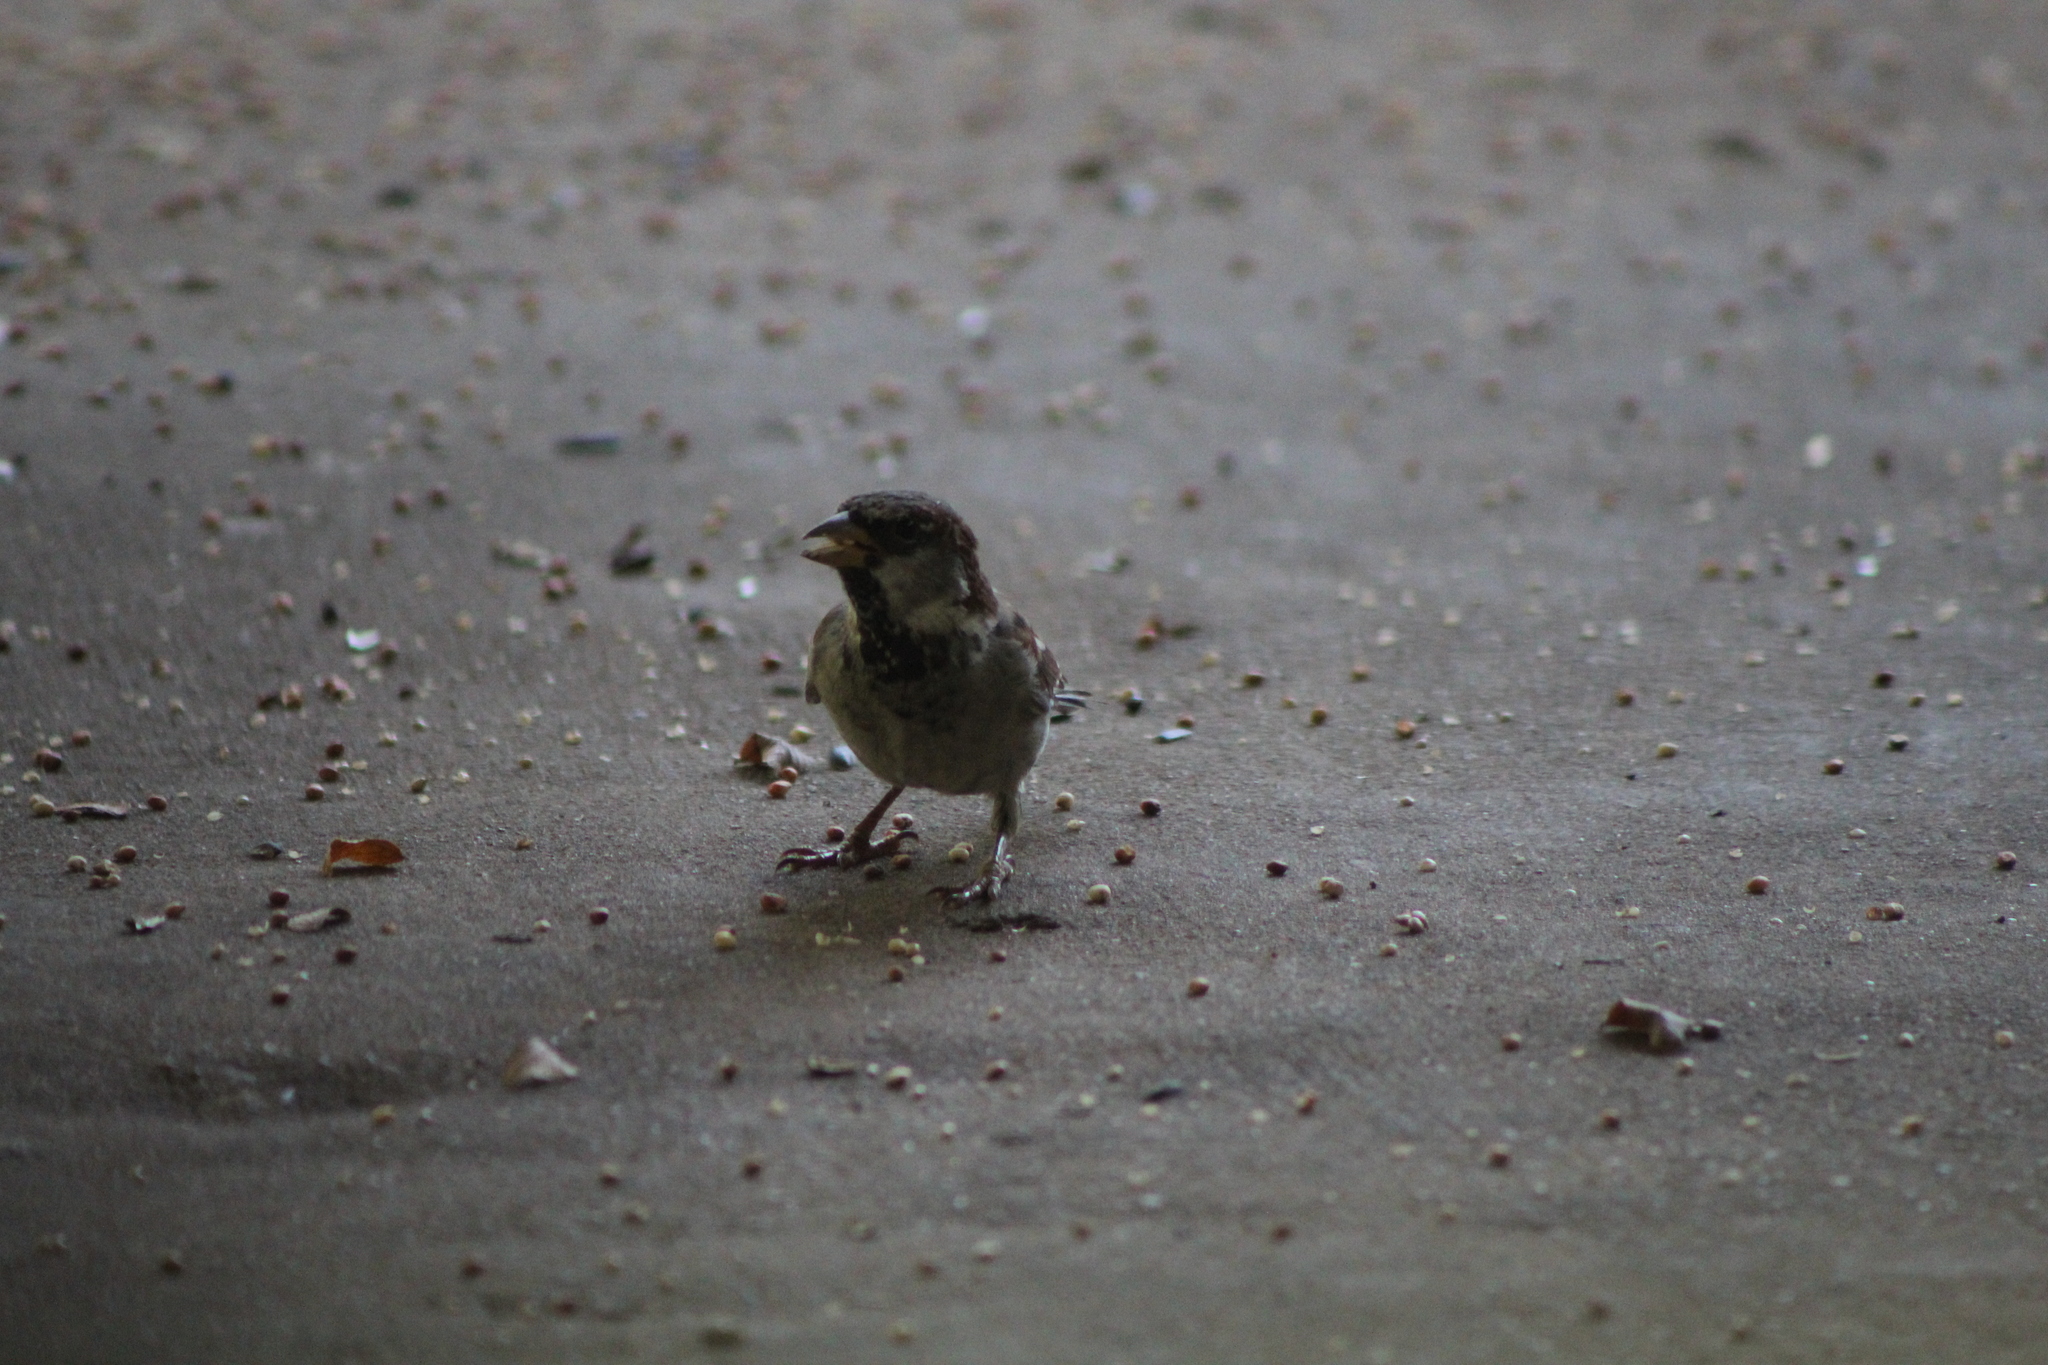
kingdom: Animalia
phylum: Chordata
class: Aves
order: Passeriformes
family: Passeridae
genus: Passer
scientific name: Passer domesticus
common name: House sparrow
